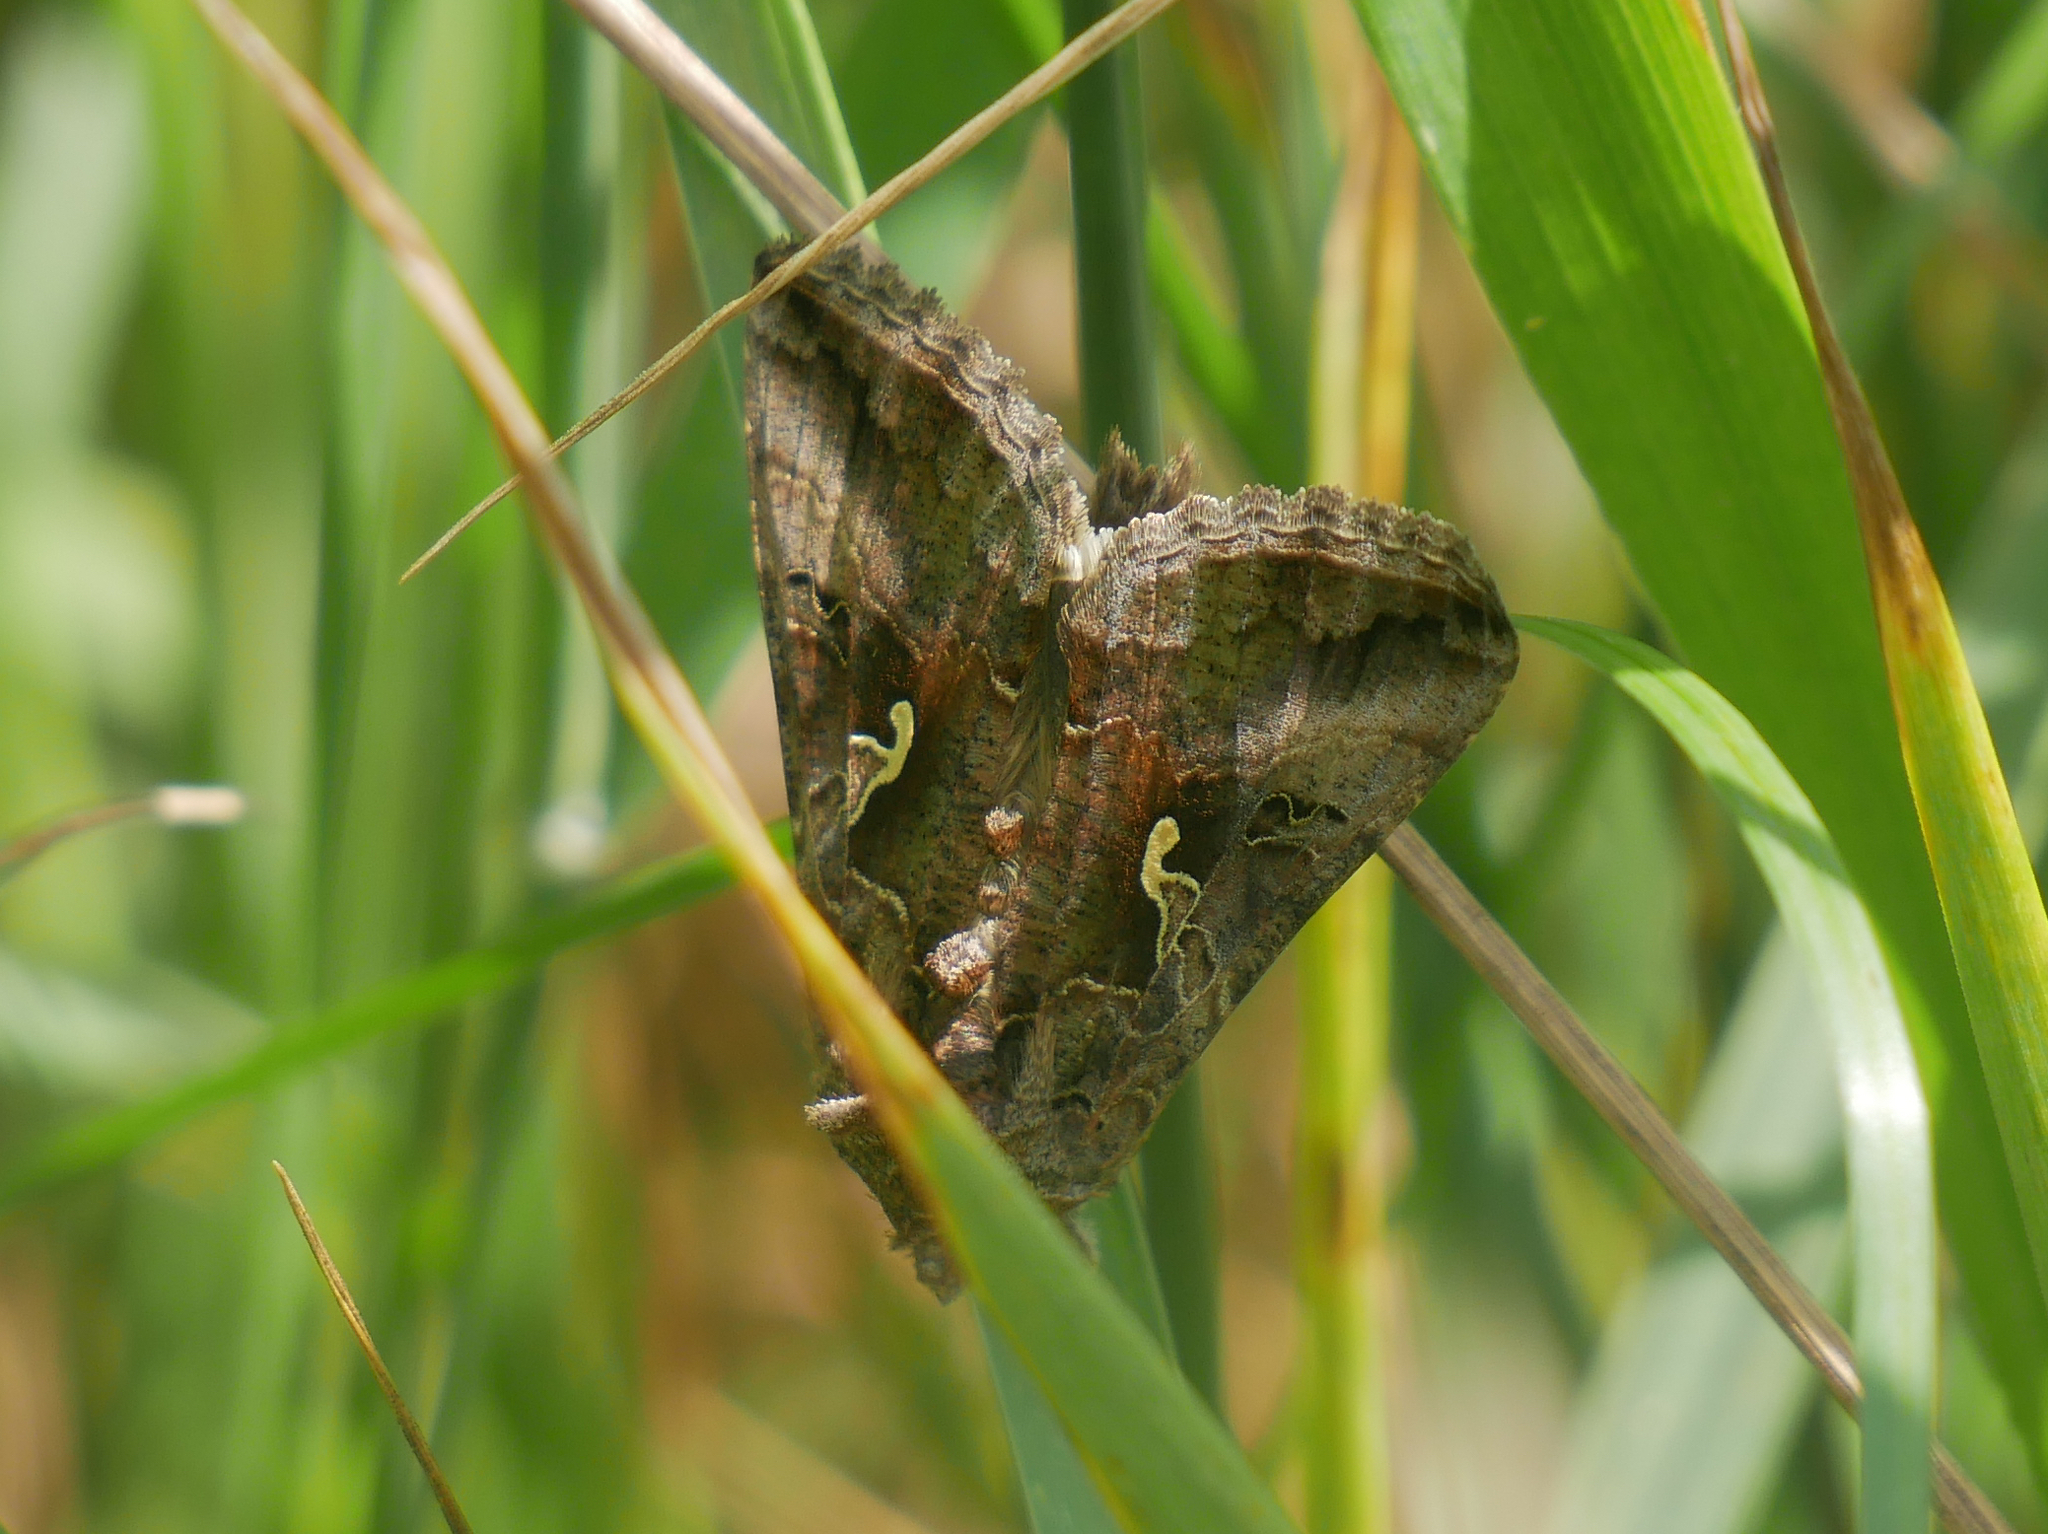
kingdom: Animalia
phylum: Arthropoda
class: Insecta
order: Lepidoptera
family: Noctuidae
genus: Autographa
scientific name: Autographa gamma
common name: Silver y
